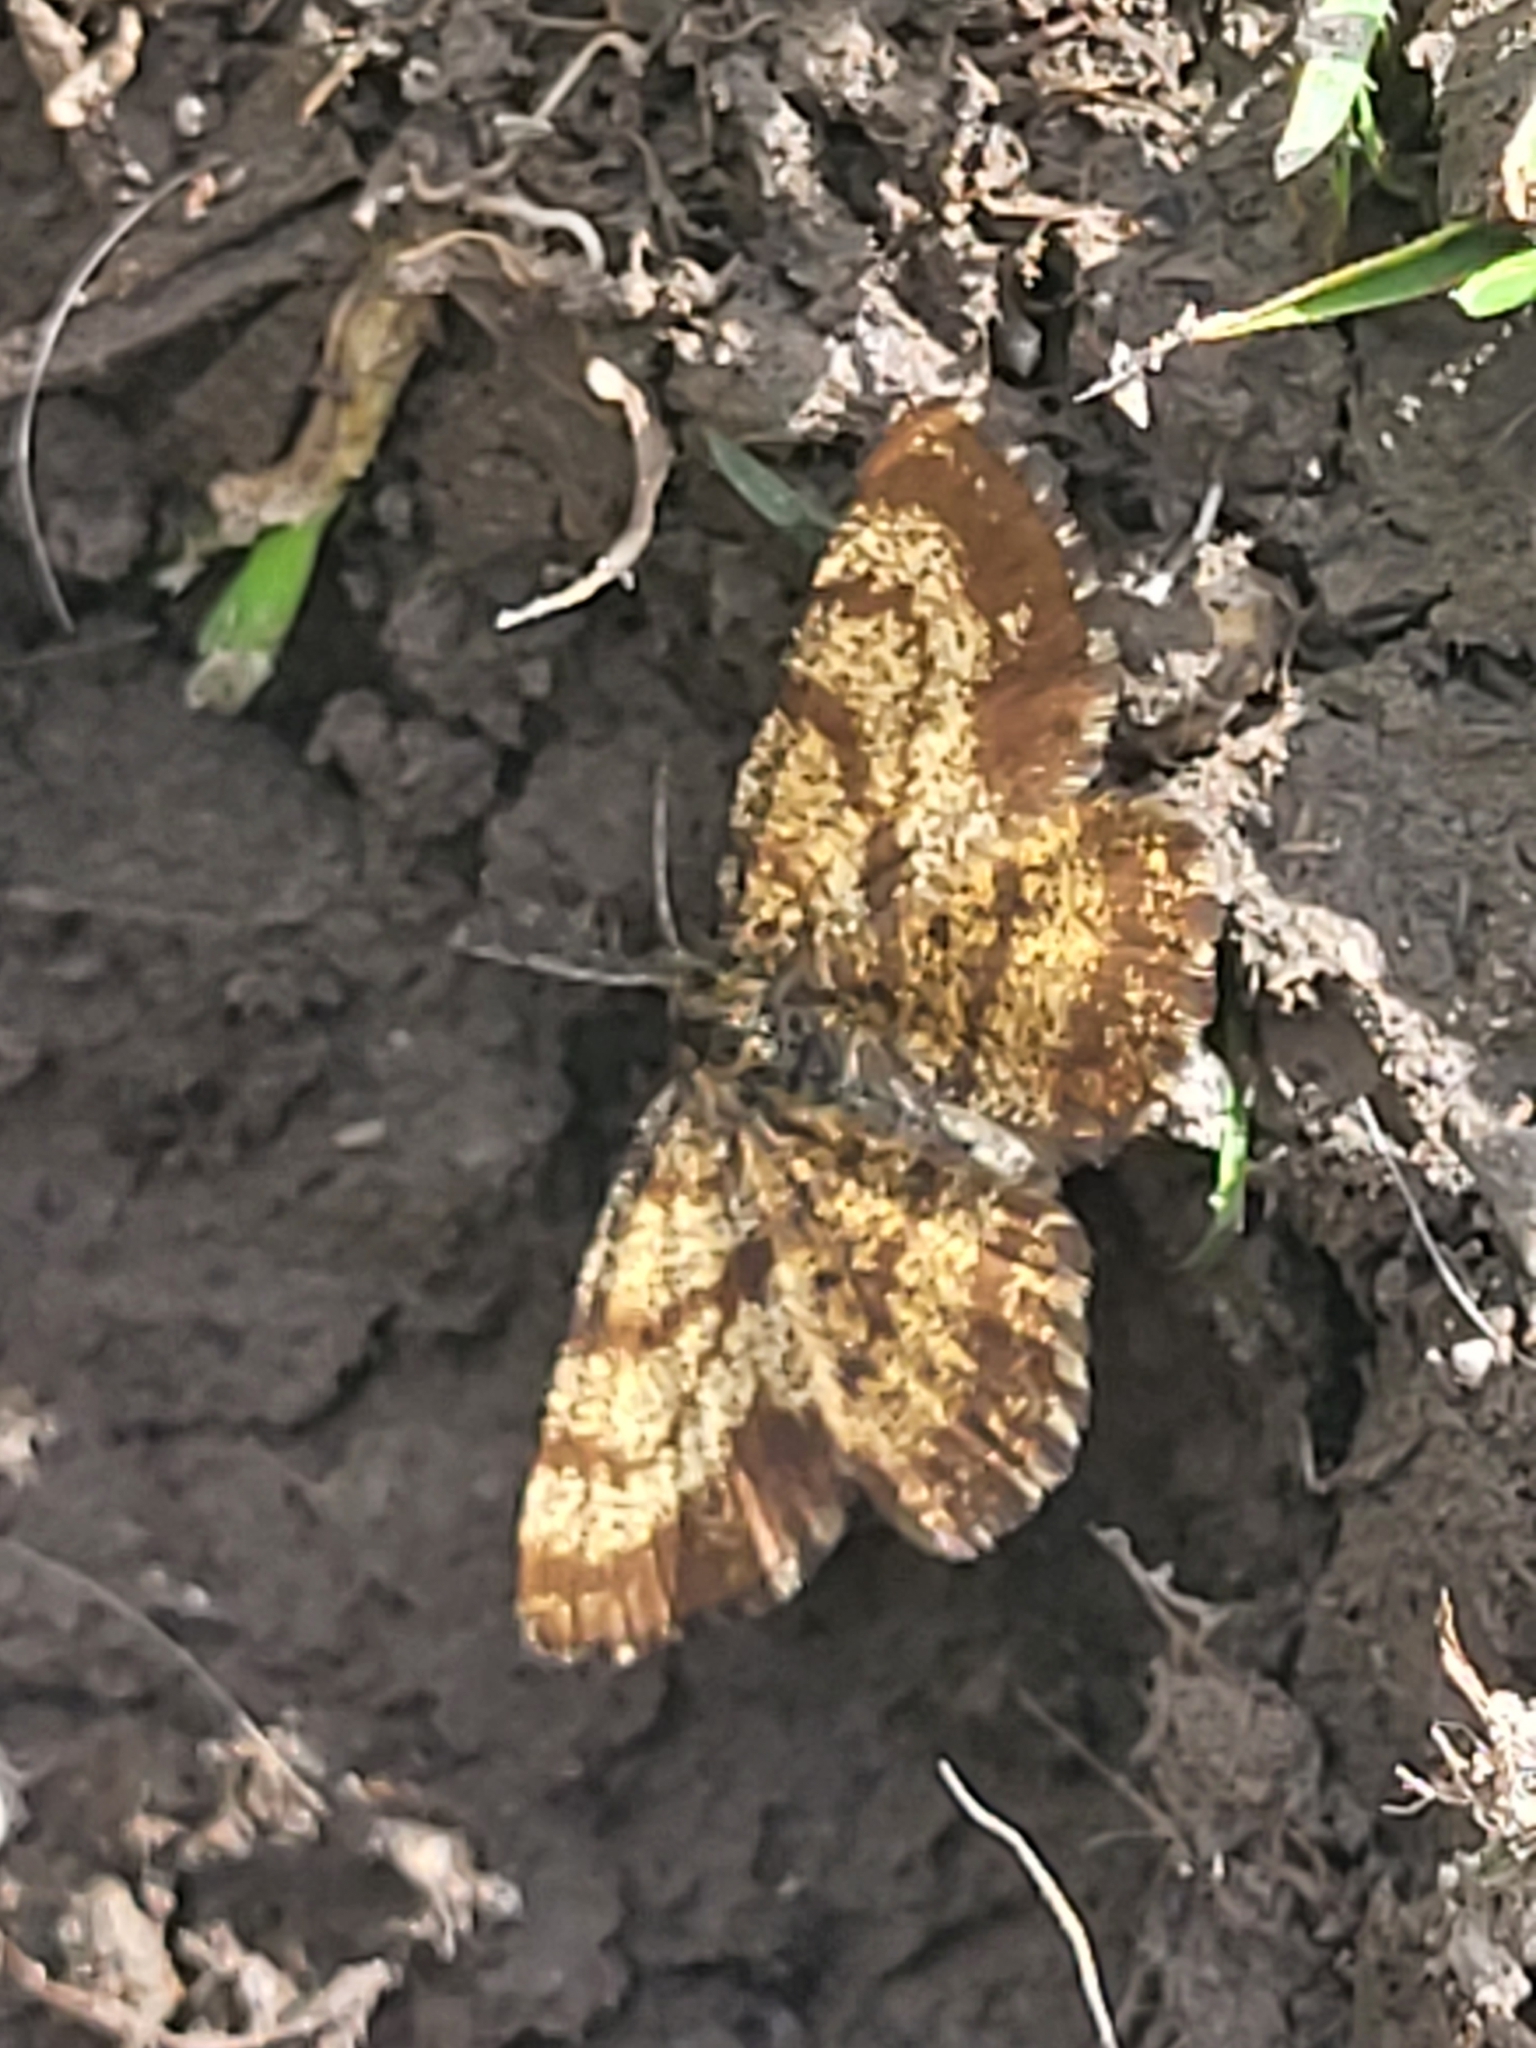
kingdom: Animalia
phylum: Arthropoda
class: Insecta
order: Lepidoptera
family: Geometridae
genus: Ematurga
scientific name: Ematurga atomaria
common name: Common heath
